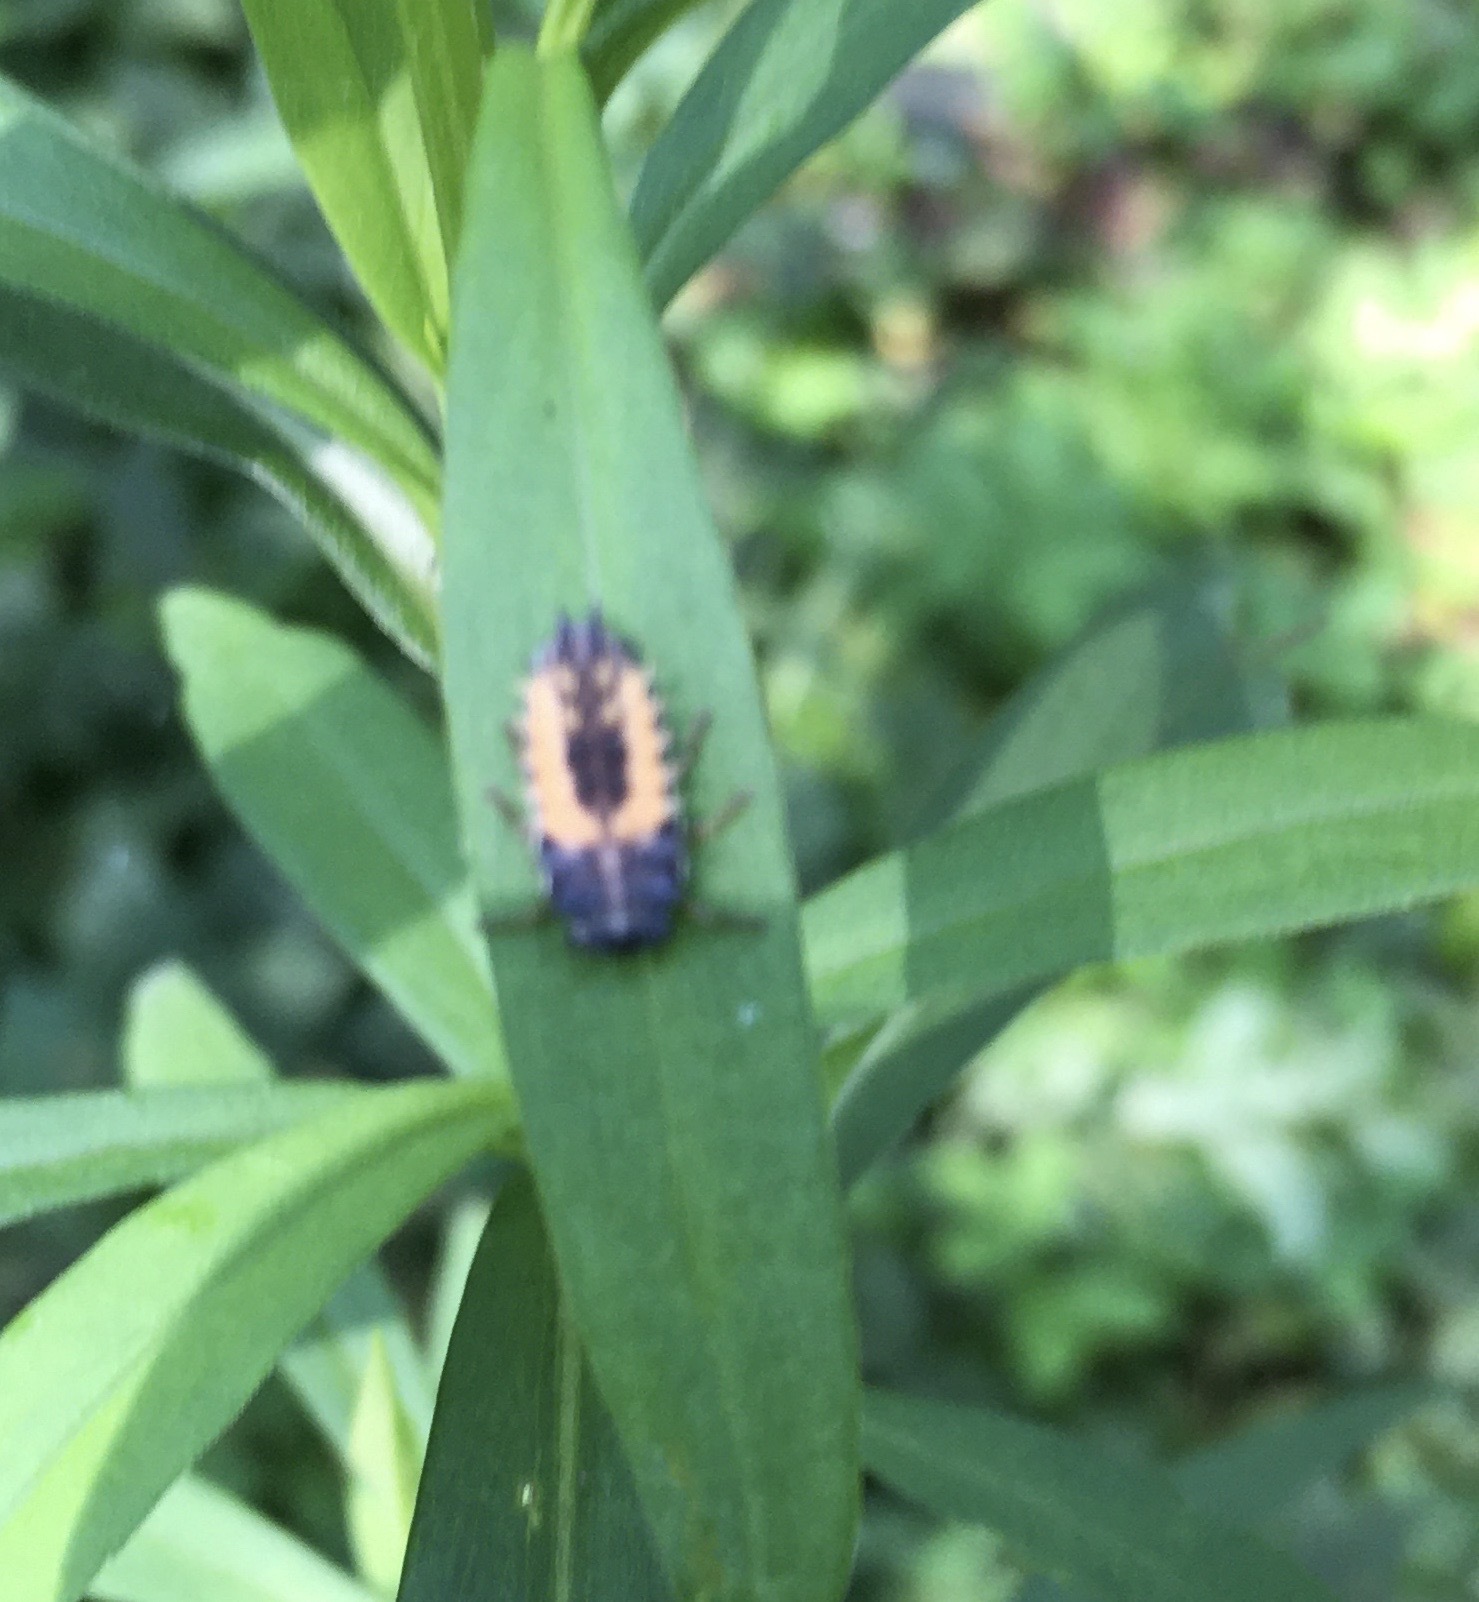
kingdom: Animalia
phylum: Arthropoda
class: Insecta
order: Coleoptera
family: Coccinellidae
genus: Harmonia
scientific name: Harmonia axyridis
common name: Harlequin ladybird
